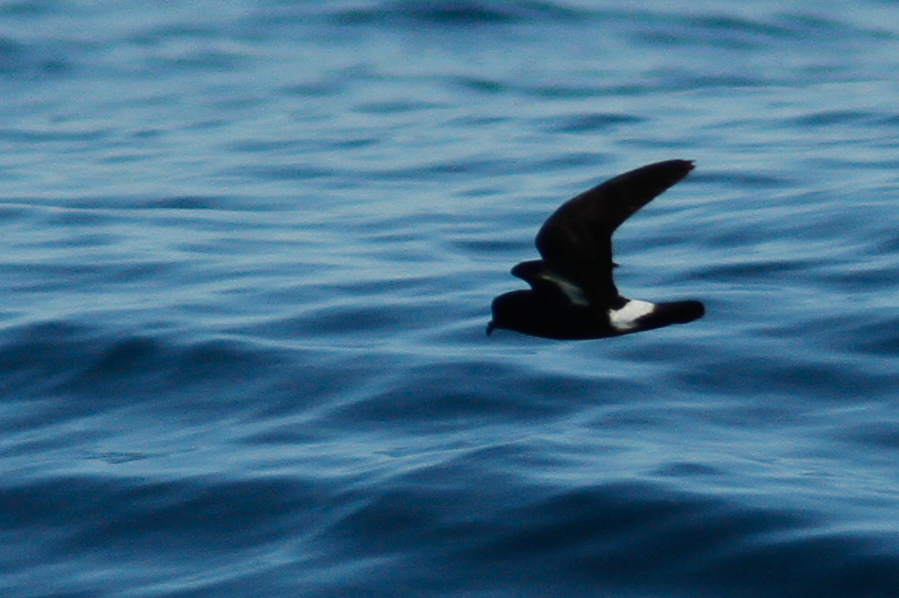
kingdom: Animalia
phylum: Chordata
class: Aves
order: Procellariiformes
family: Hydrobatidae
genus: Hydrobates
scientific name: Hydrobates pelagicus
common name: European storm-petrel
